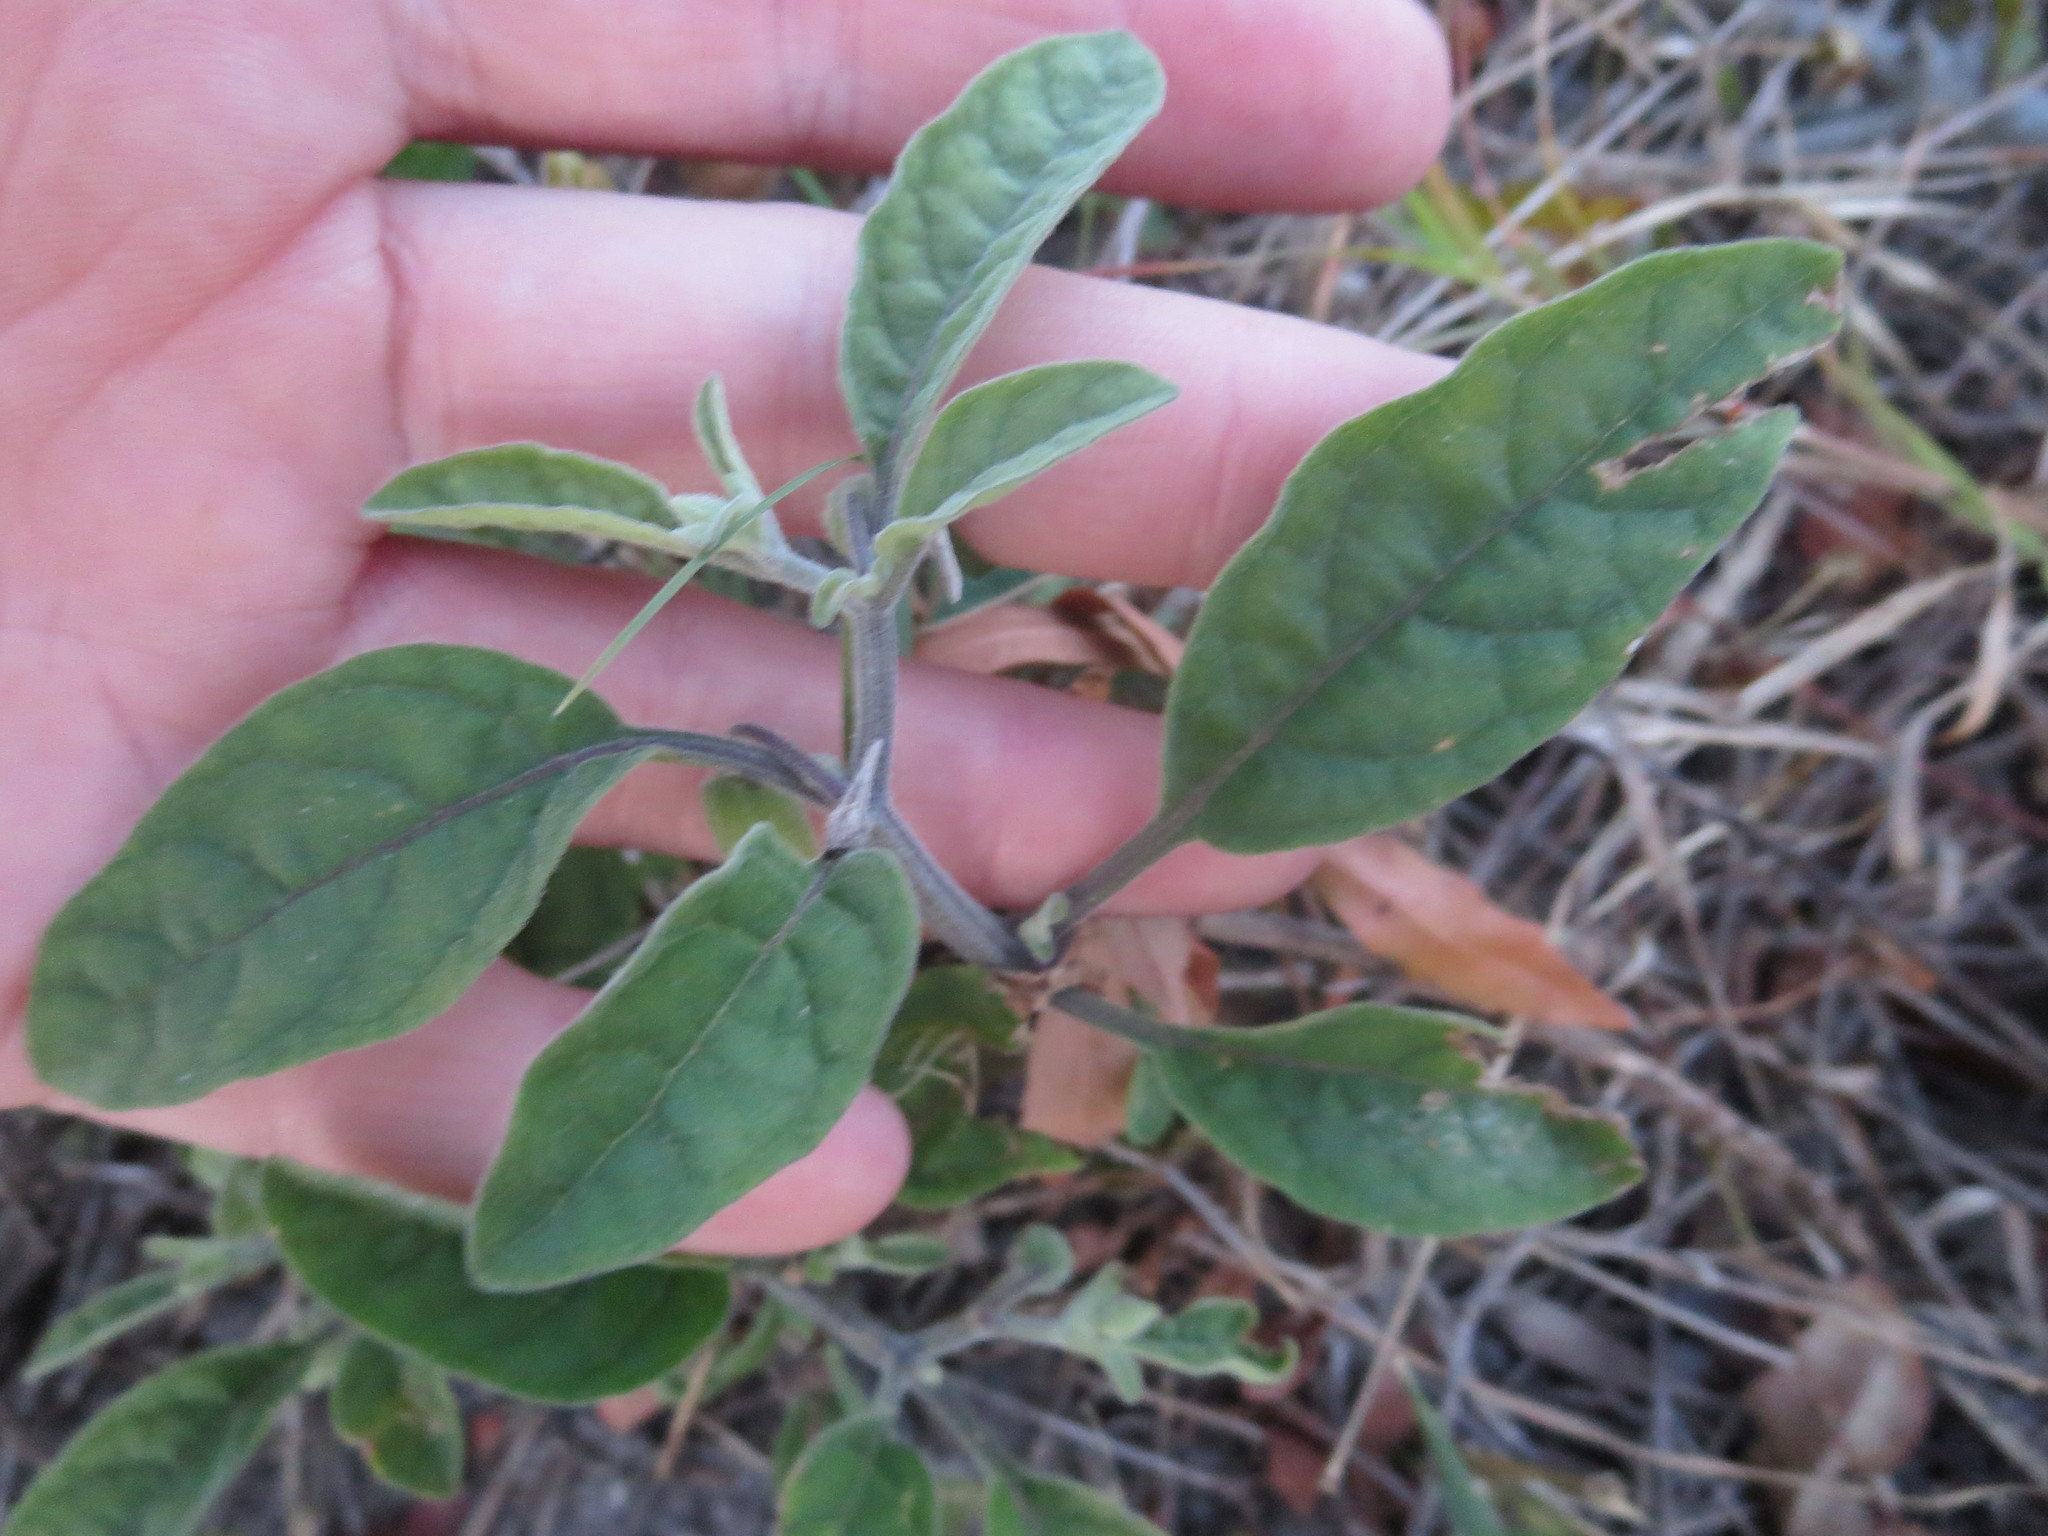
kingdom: Plantae
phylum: Tracheophyta
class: Magnoliopsida
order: Solanales
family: Solanaceae
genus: Physalis
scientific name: Physalis walteri
